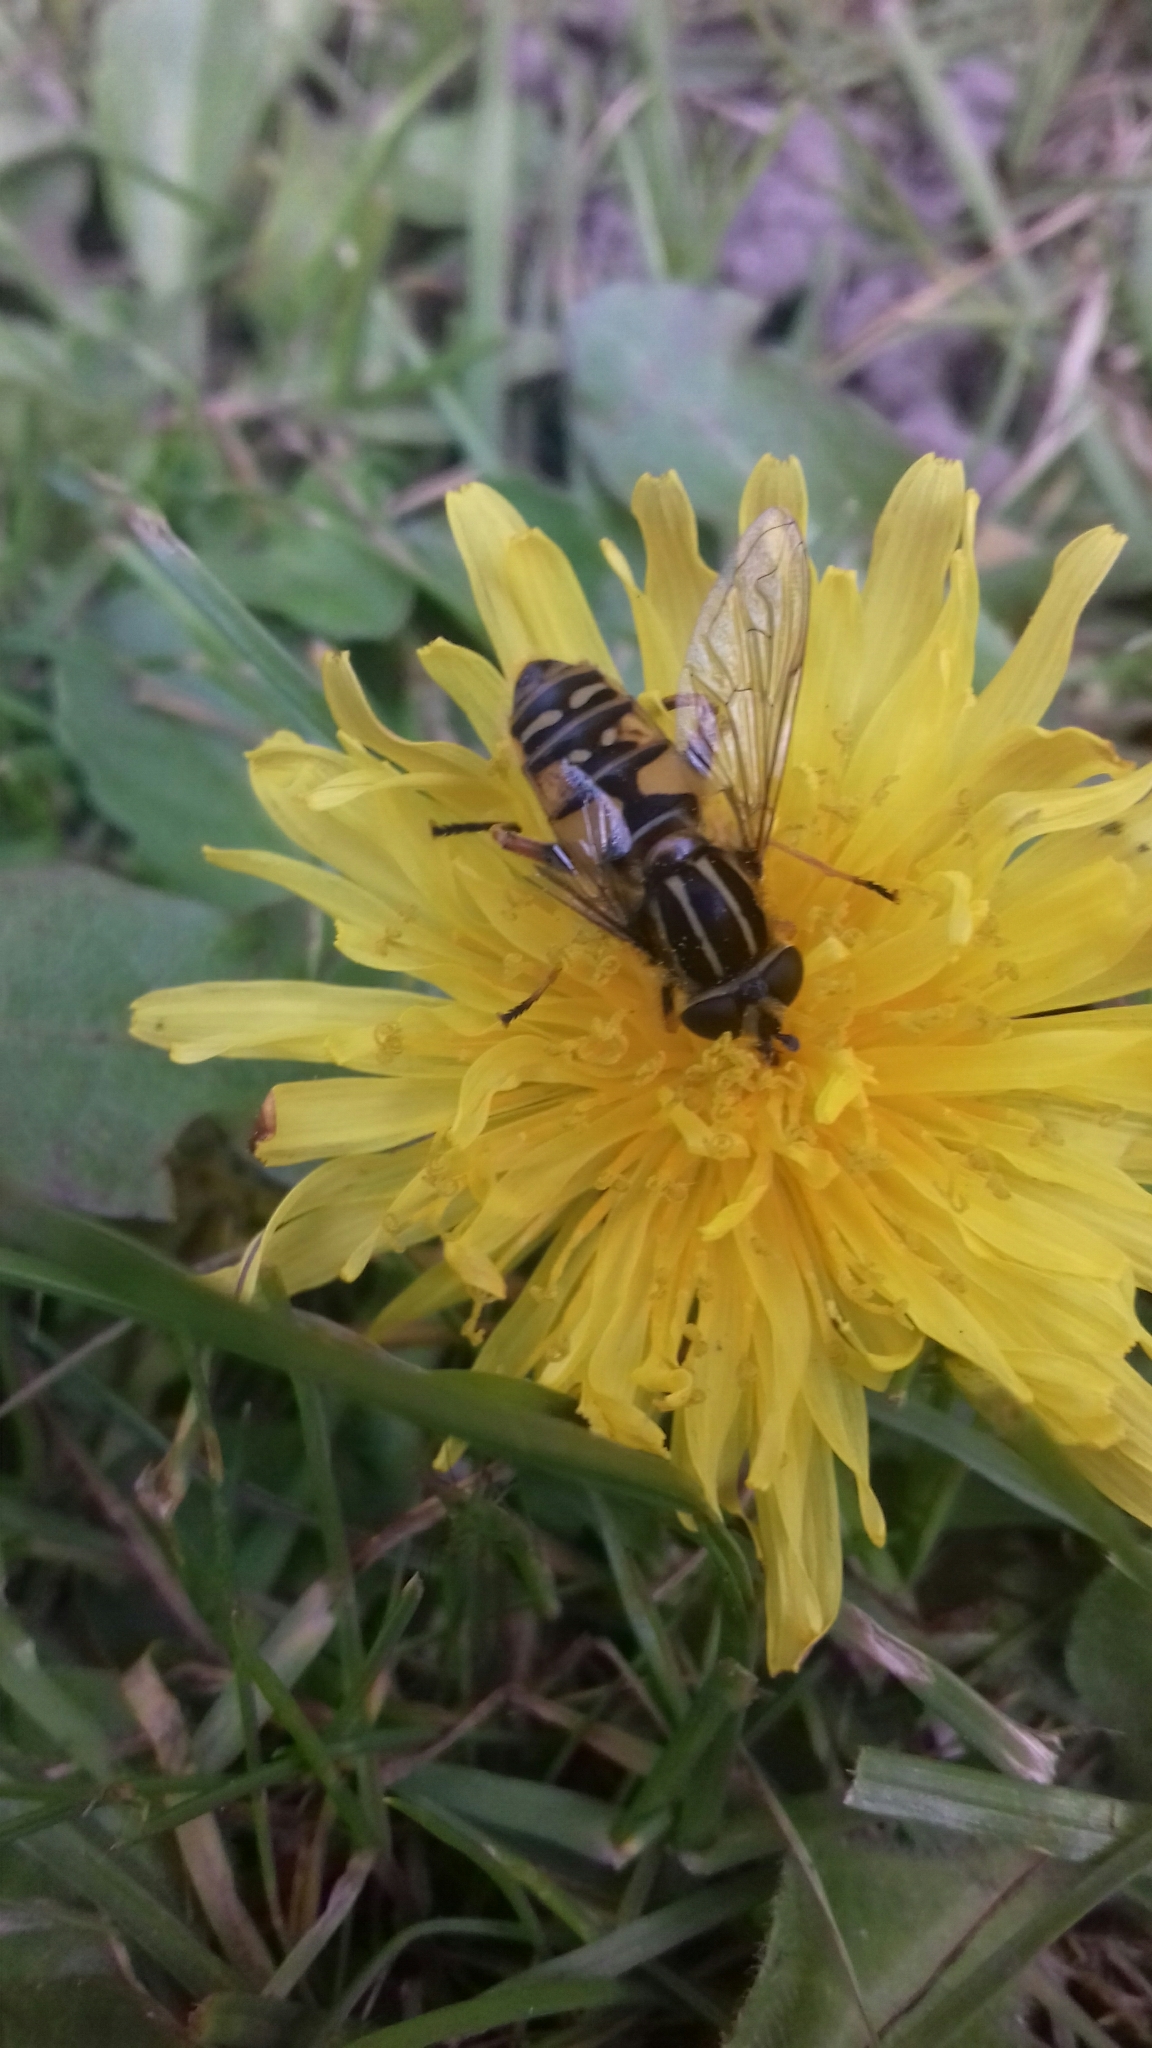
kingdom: Animalia
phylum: Arthropoda
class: Insecta
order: Diptera
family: Syrphidae
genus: Helophilus
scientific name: Helophilus pendulus
